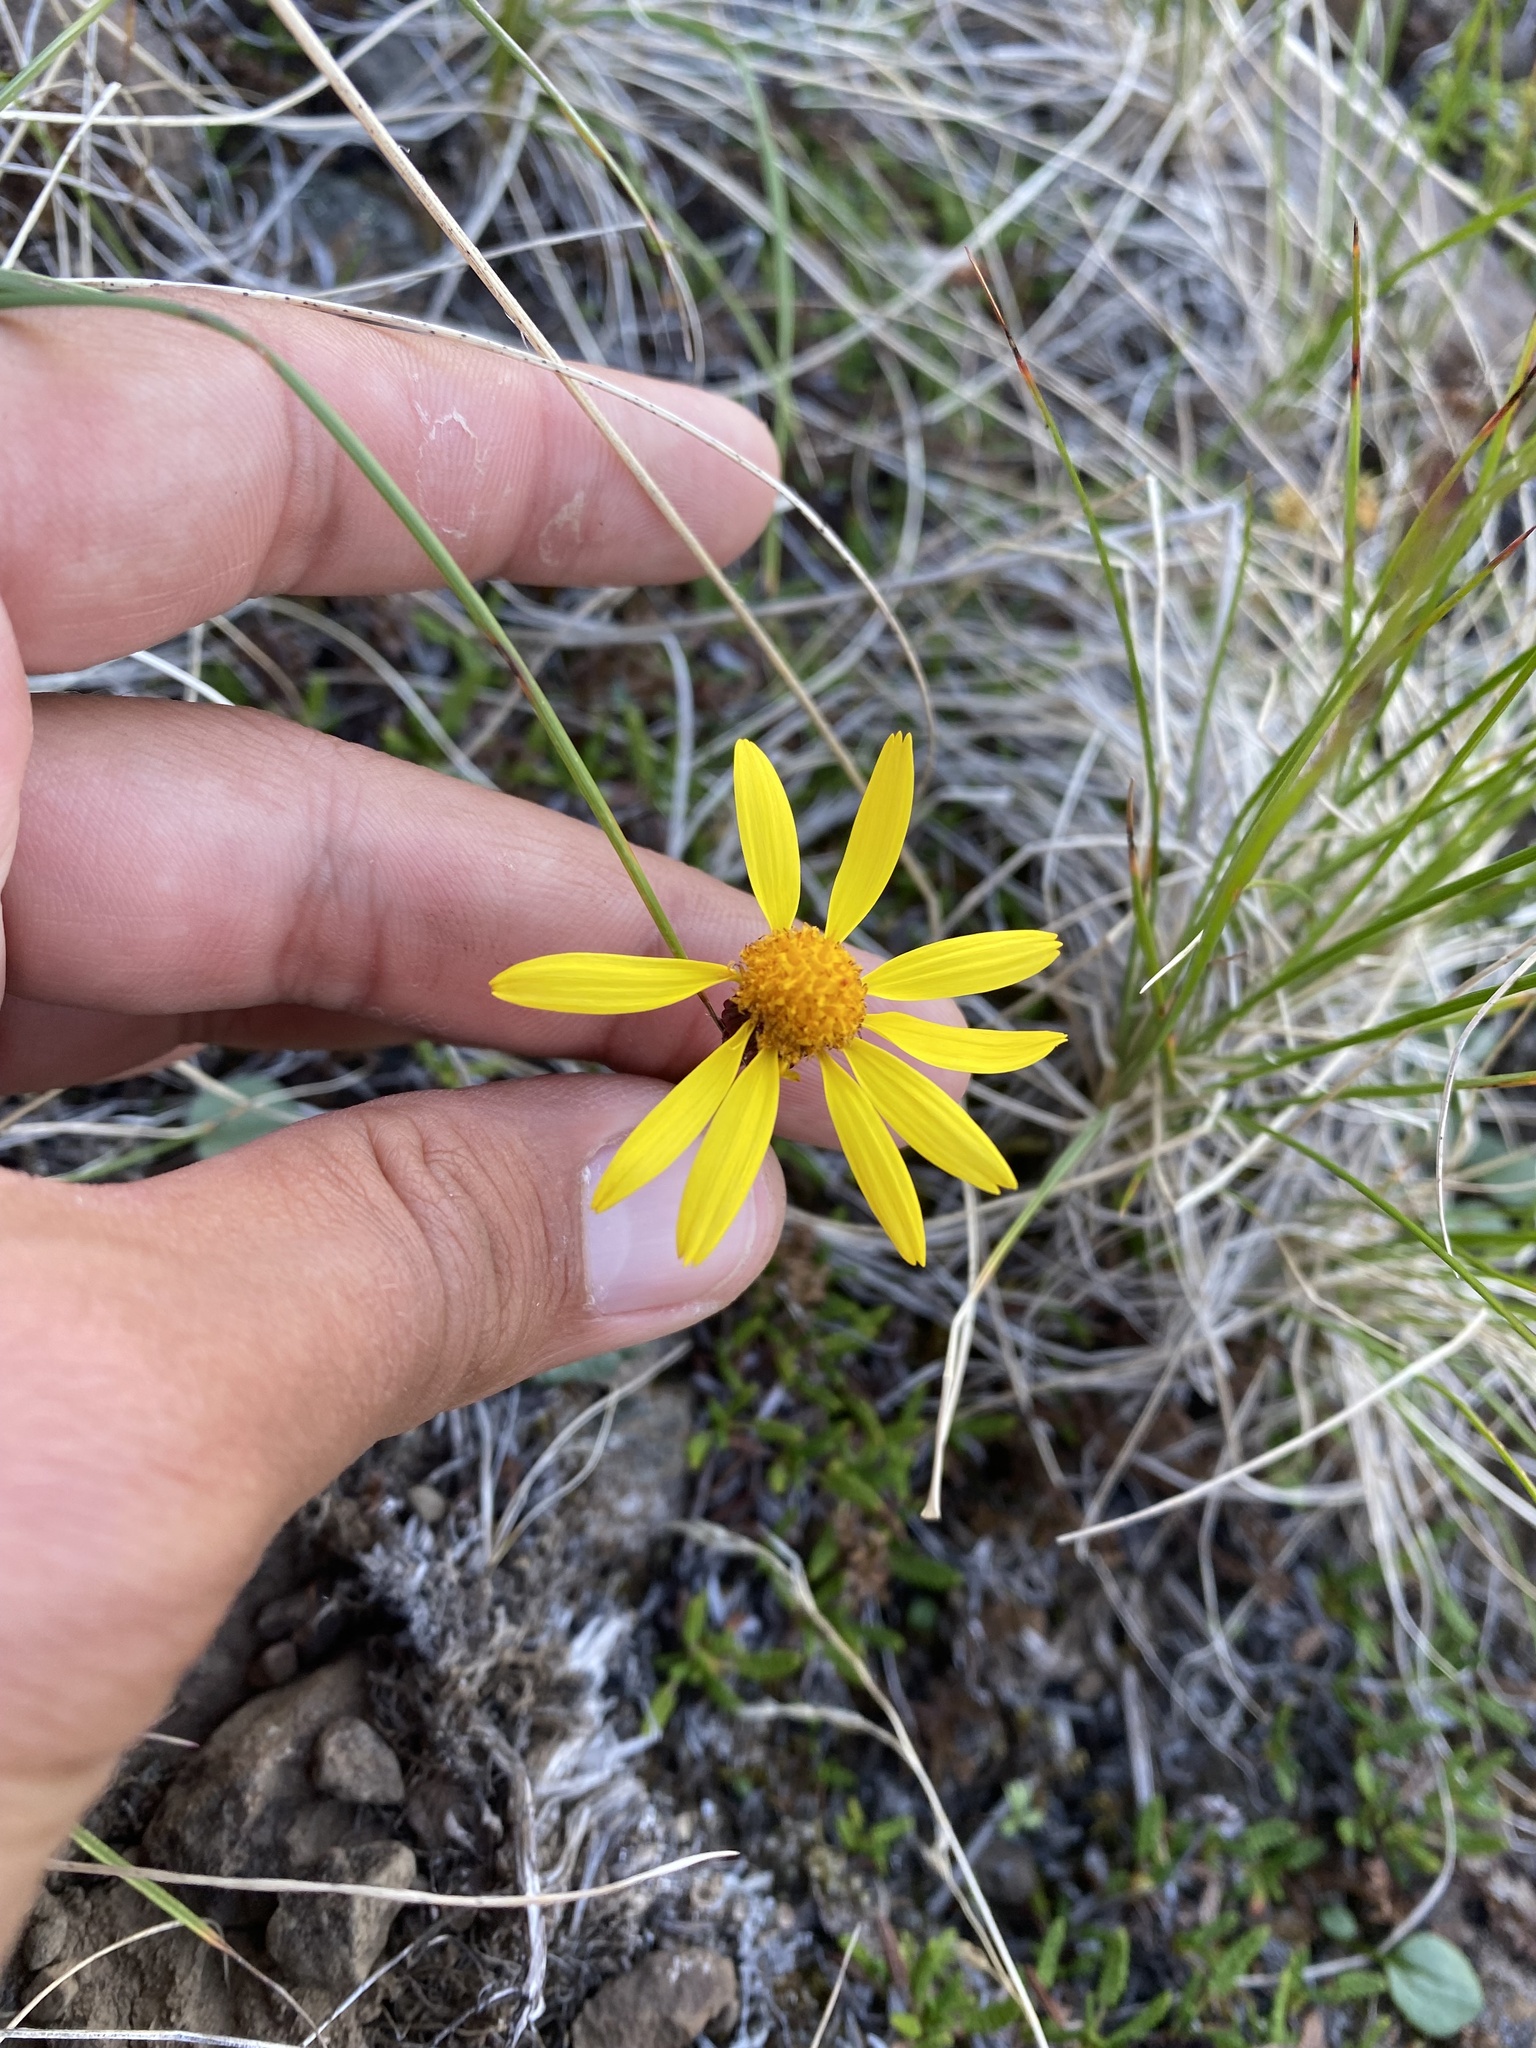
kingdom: Plantae
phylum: Tracheophyta
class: Magnoliopsida
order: Asterales
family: Asteraceae
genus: Packera
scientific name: Packera heterophylla
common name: Arctic butterweed
